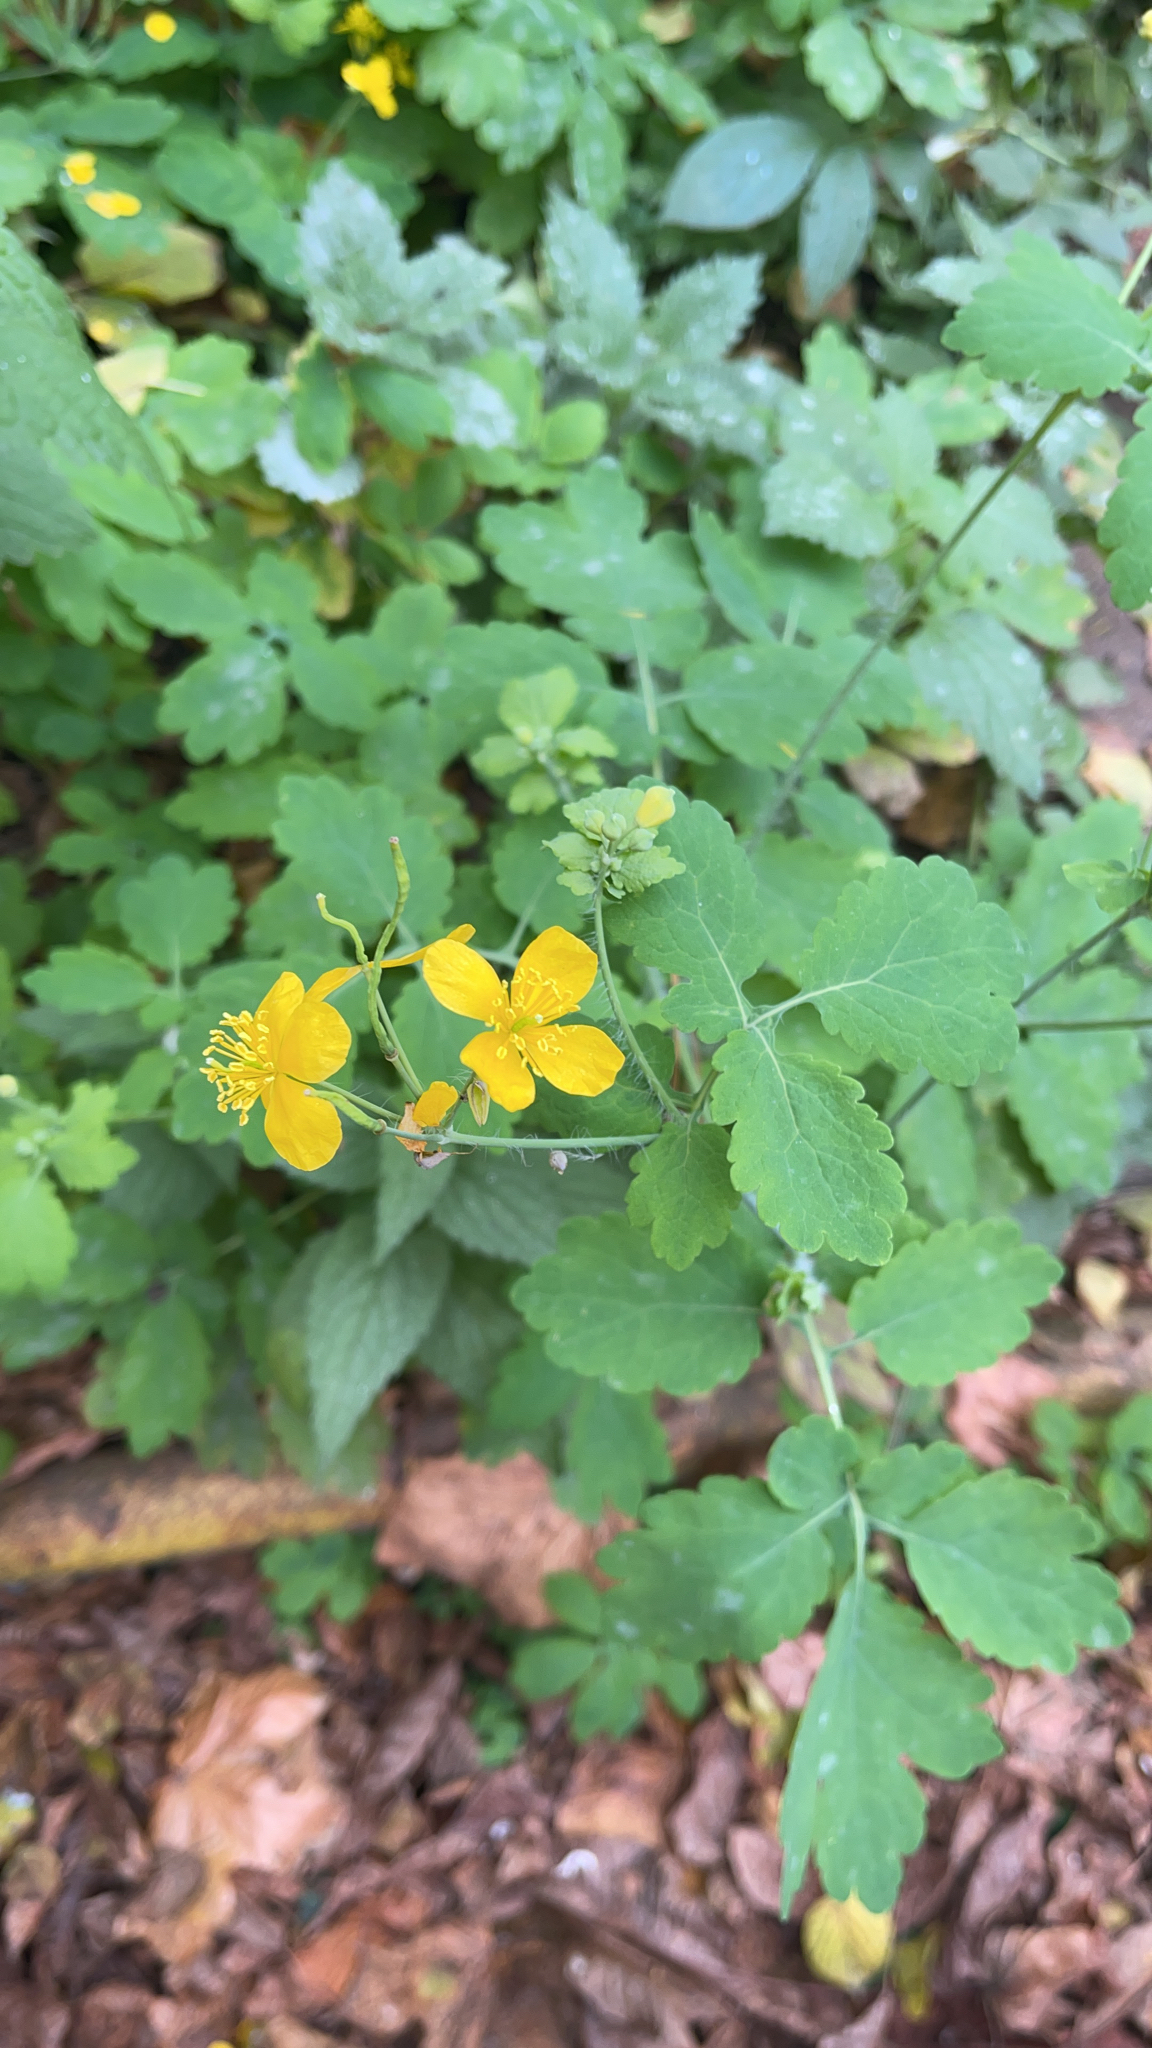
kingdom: Plantae
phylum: Tracheophyta
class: Magnoliopsida
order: Ranunculales
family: Papaveraceae
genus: Chelidonium
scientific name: Chelidonium majus
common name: Greater celandine
